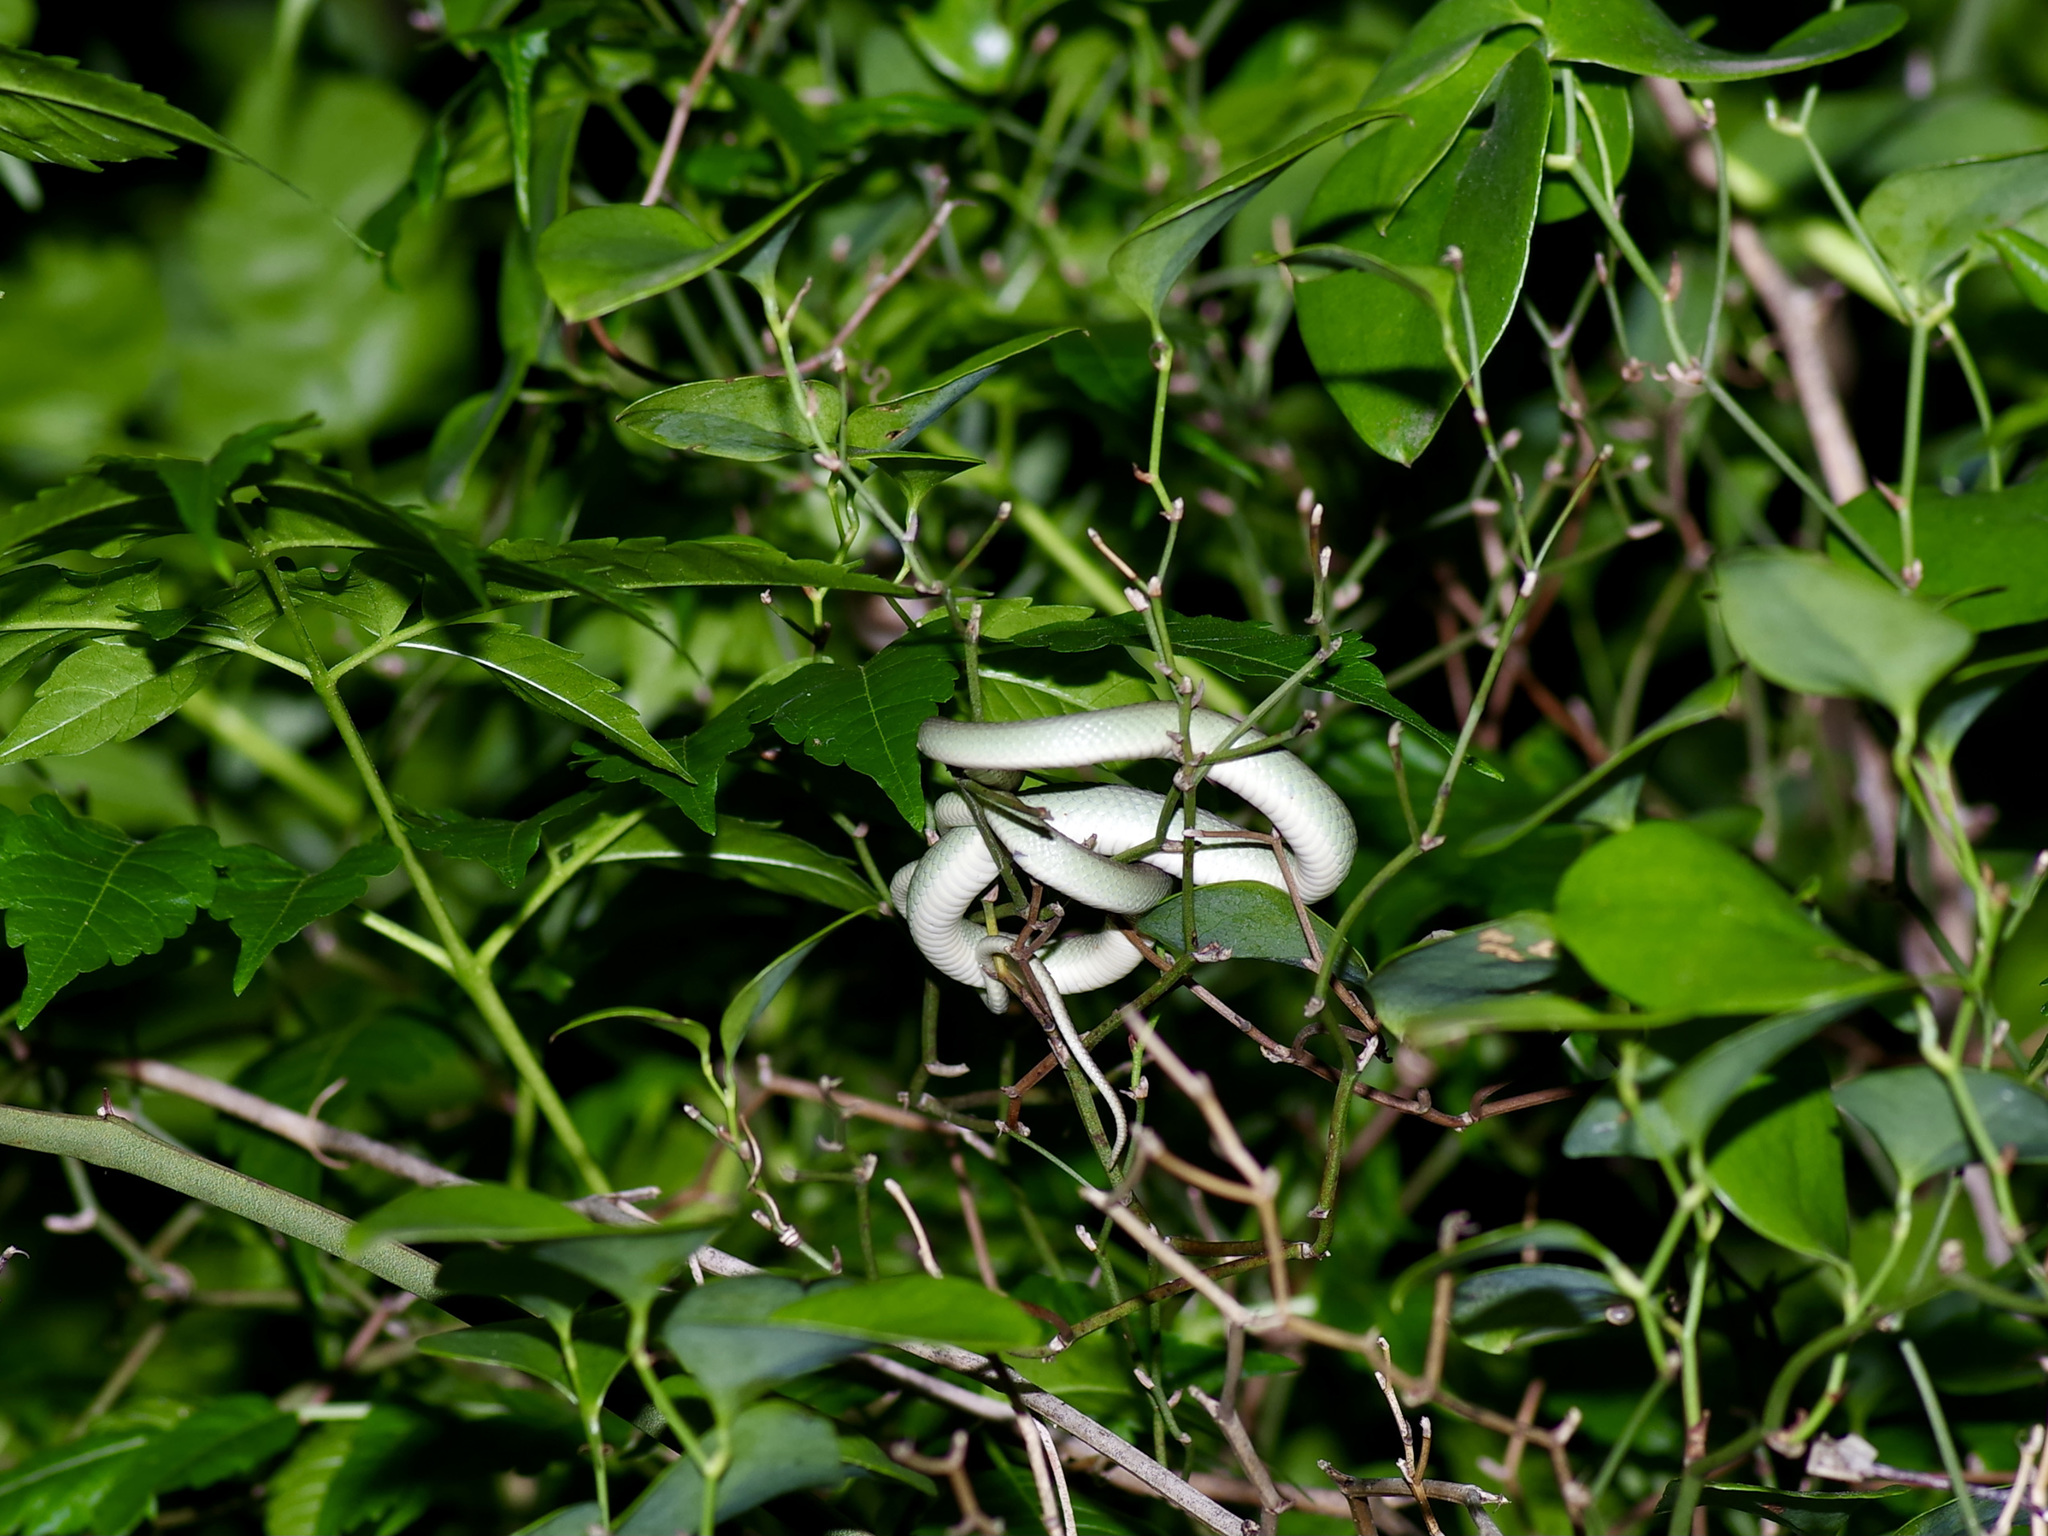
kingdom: Animalia
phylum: Chordata
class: Squamata
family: Colubridae
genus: Opheodrys
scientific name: Opheodrys aestivus
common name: Rough greensnake
